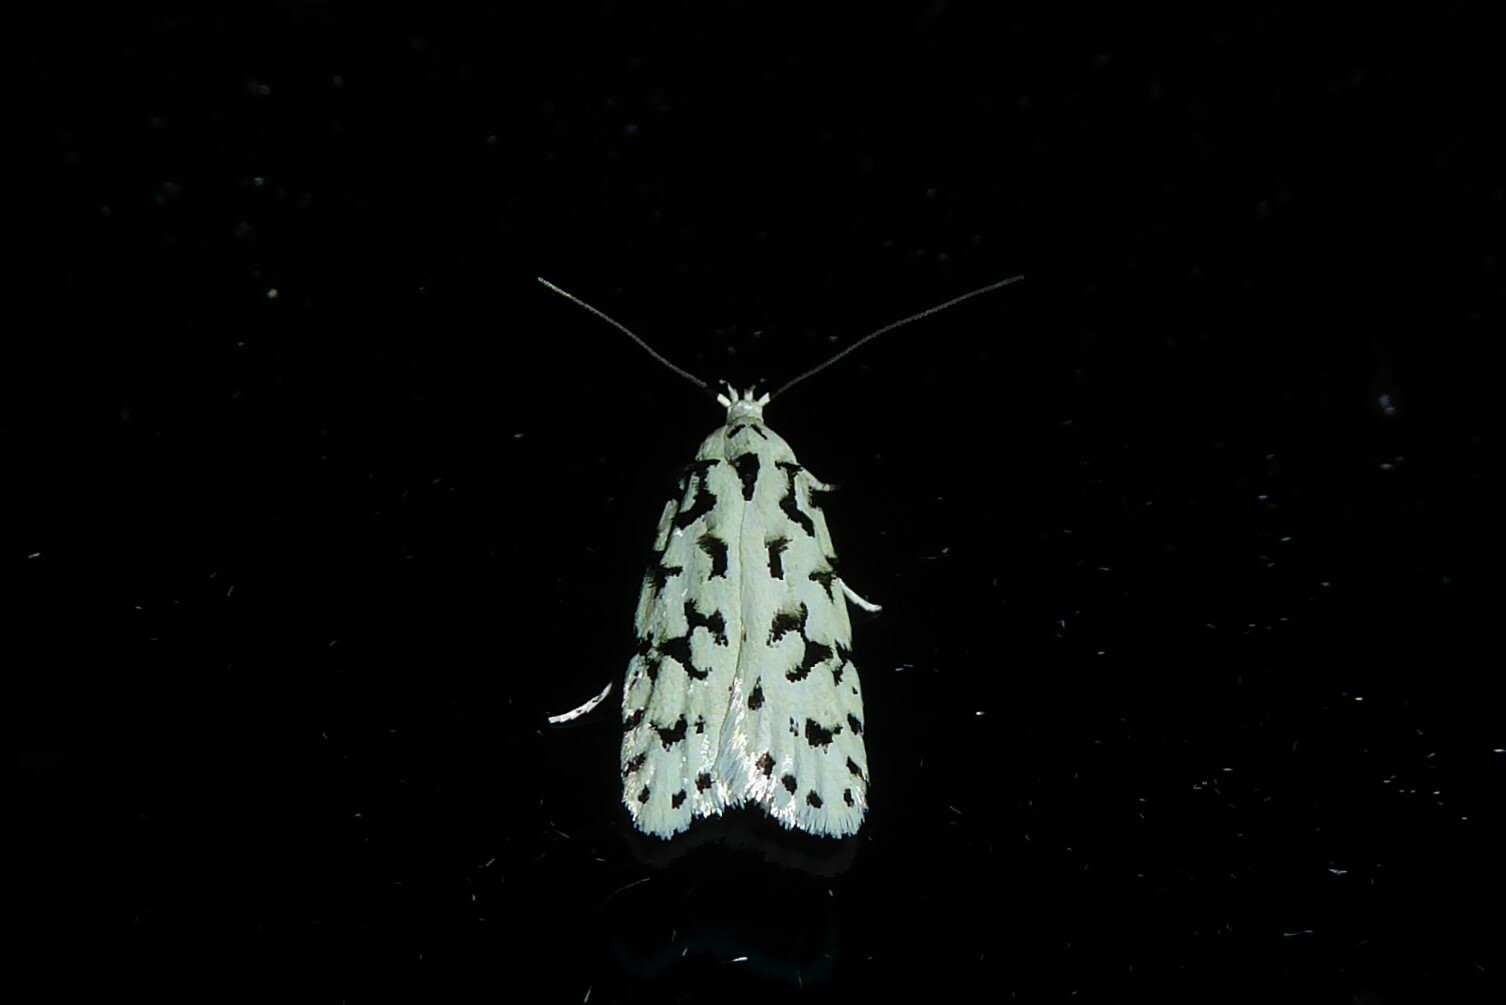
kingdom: Animalia
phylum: Arthropoda
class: Insecta
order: Lepidoptera
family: Oecophoridae
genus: Izatha
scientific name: Izatha huttoni
